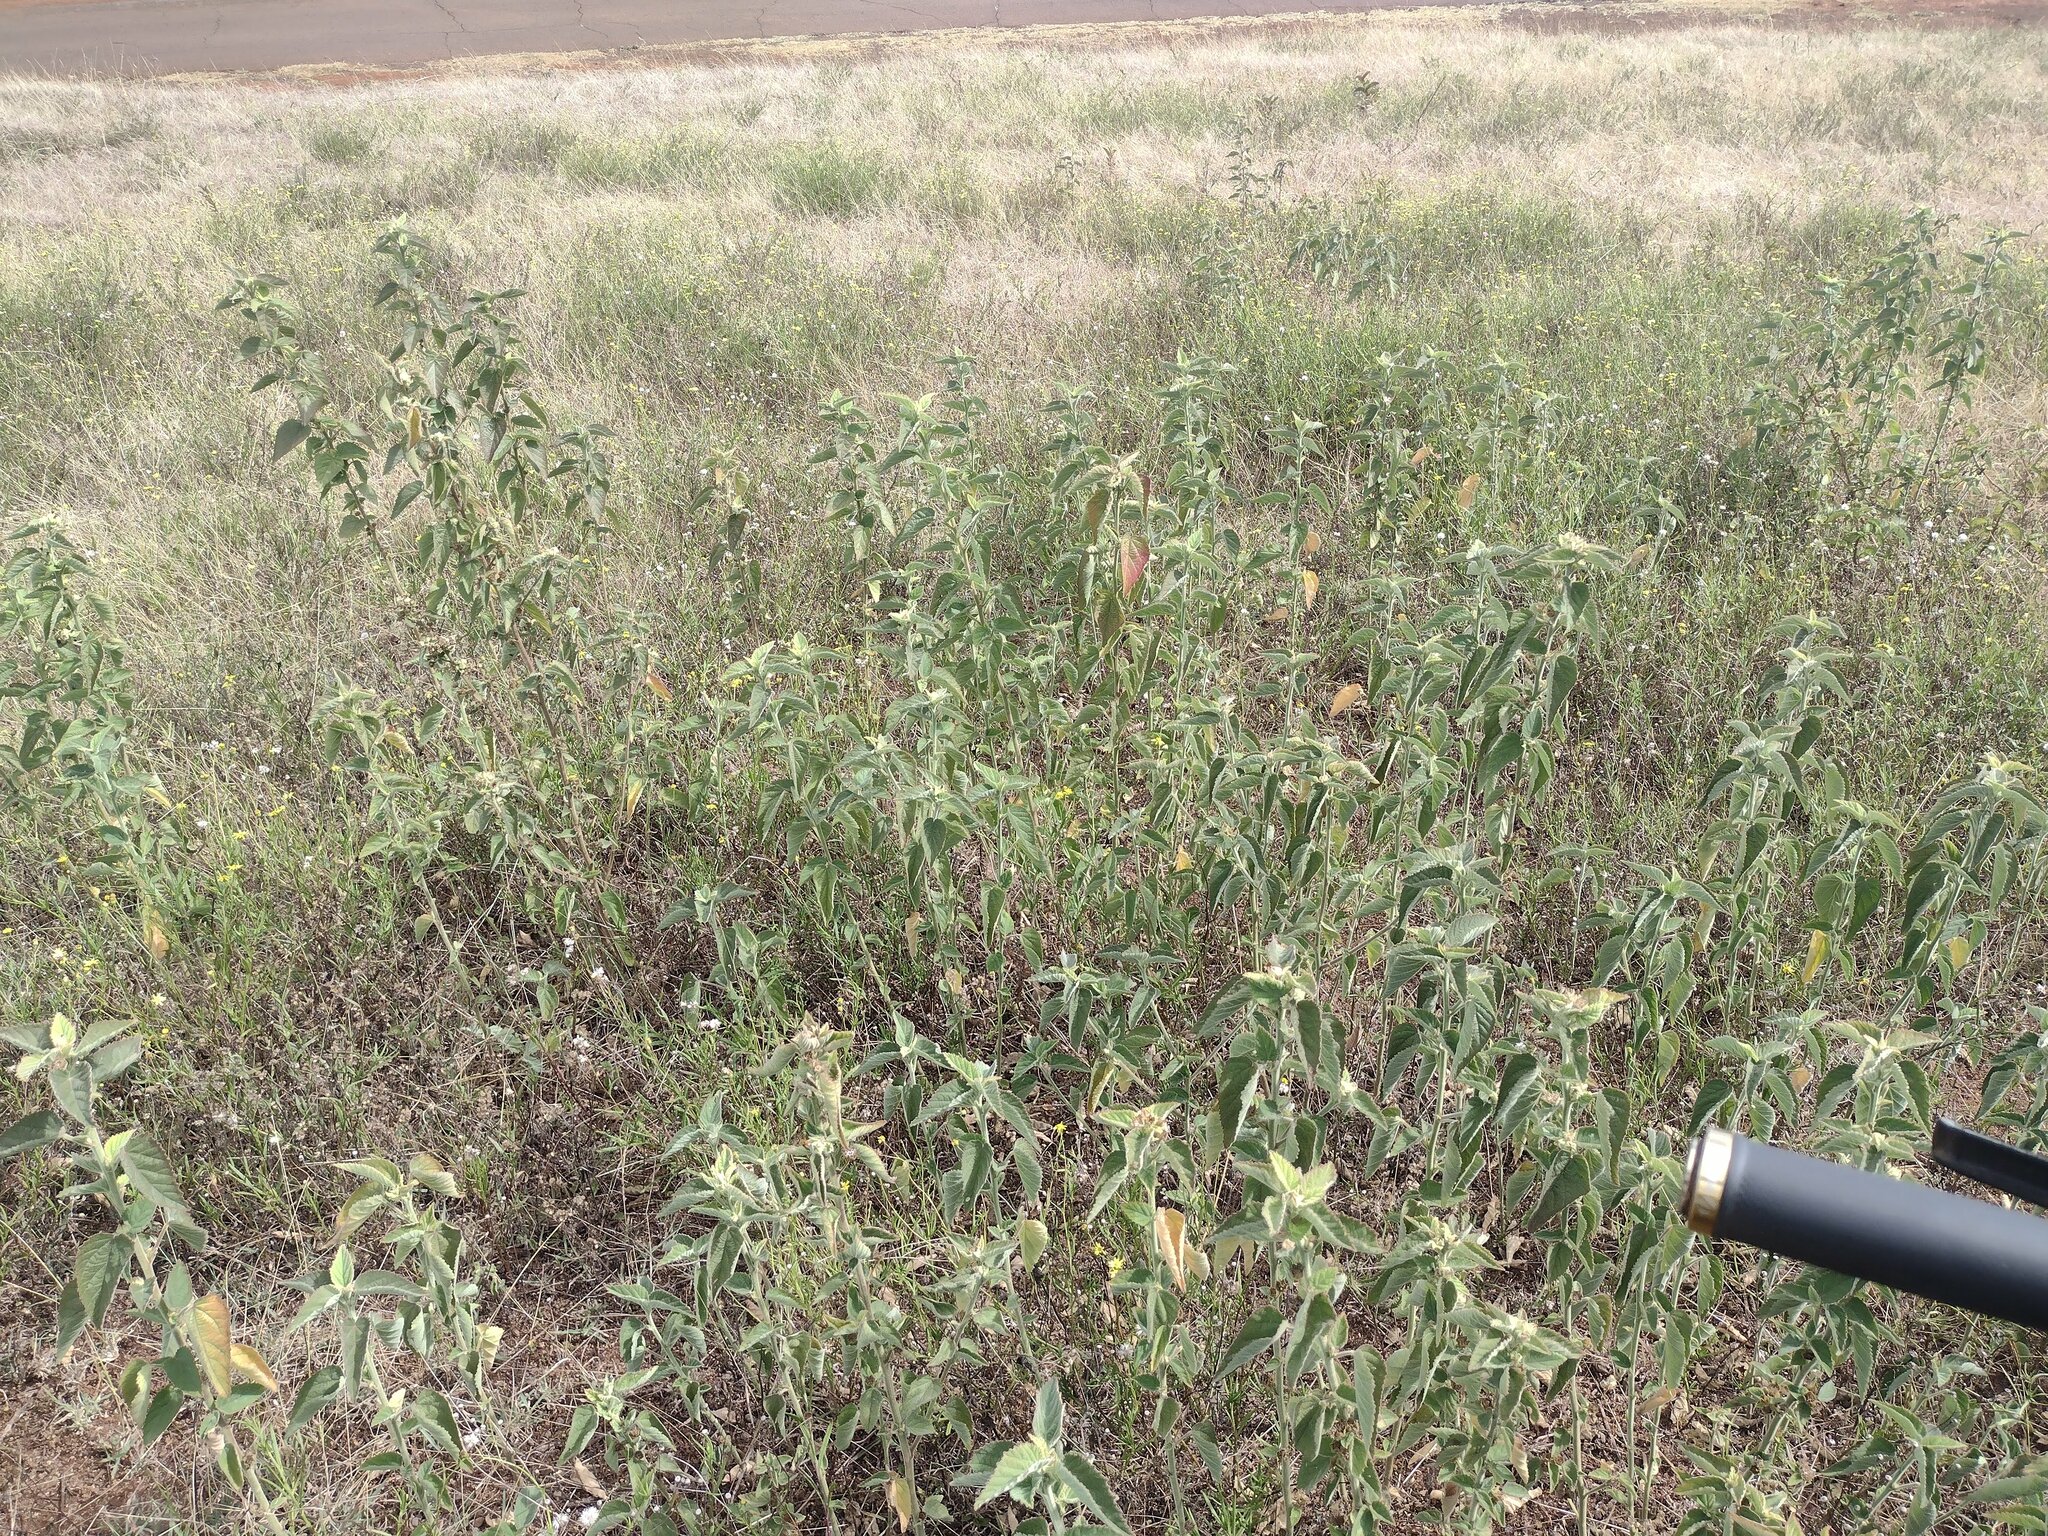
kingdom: Plantae
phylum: Tracheophyta
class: Magnoliopsida
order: Malvales
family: Malvaceae
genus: Sida
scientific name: Sida cordifolia
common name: Ilima
